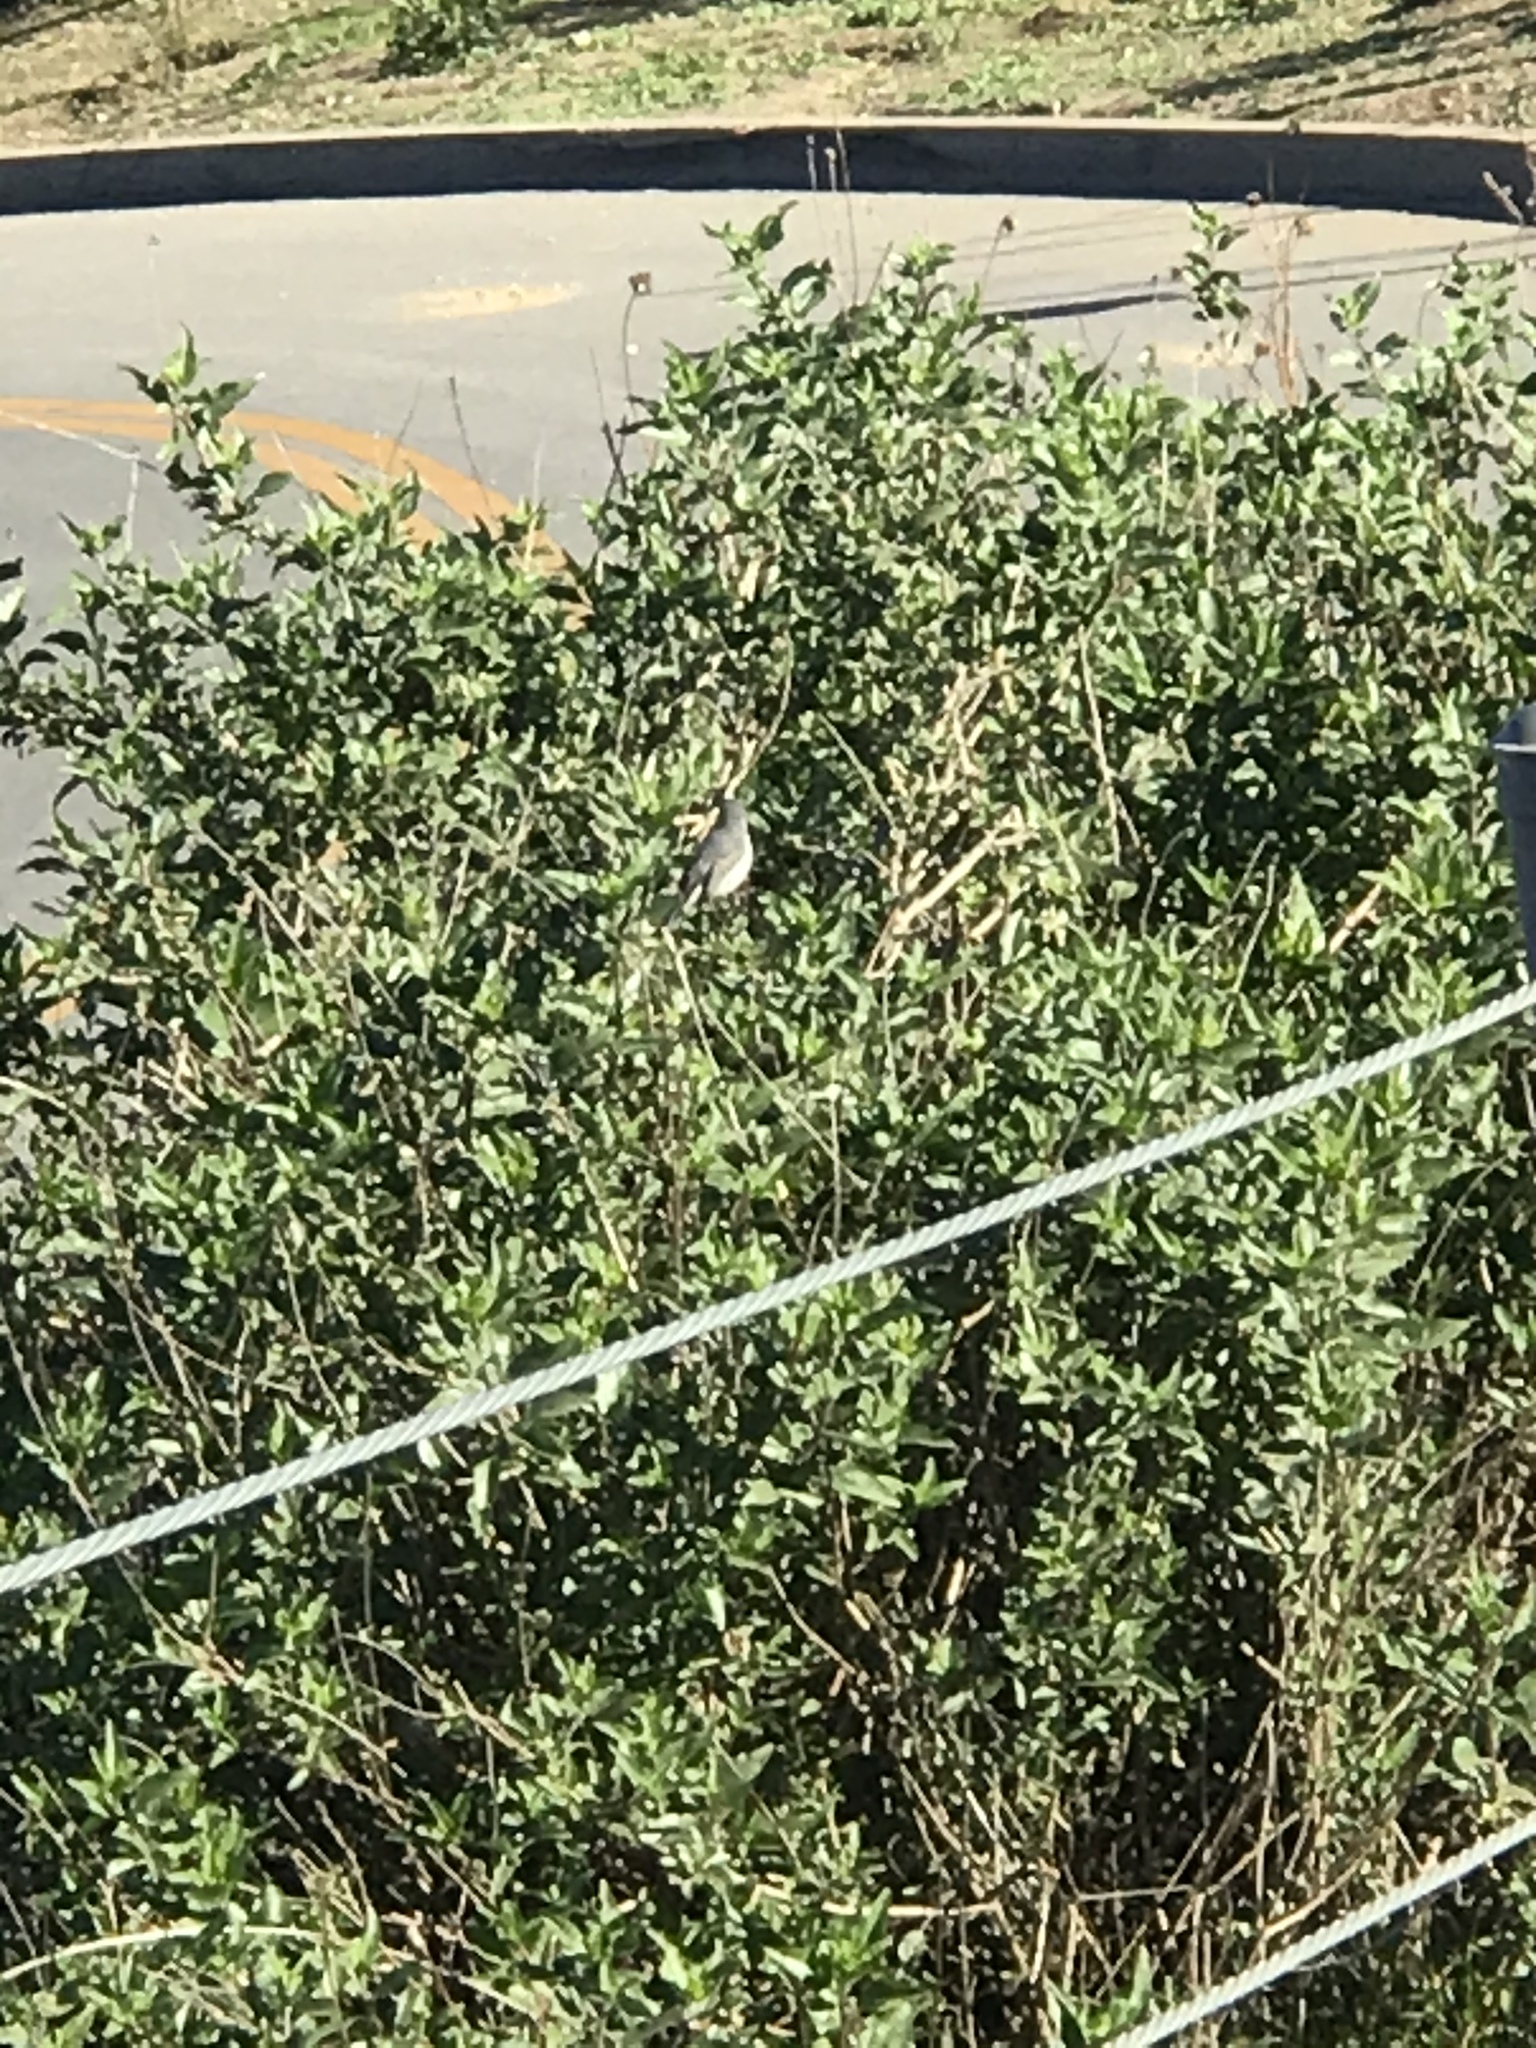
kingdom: Animalia
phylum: Chordata
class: Aves
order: Passeriformes
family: Polioptilidae
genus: Polioptila
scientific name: Polioptila caerulea
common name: Blue-gray gnatcatcher
